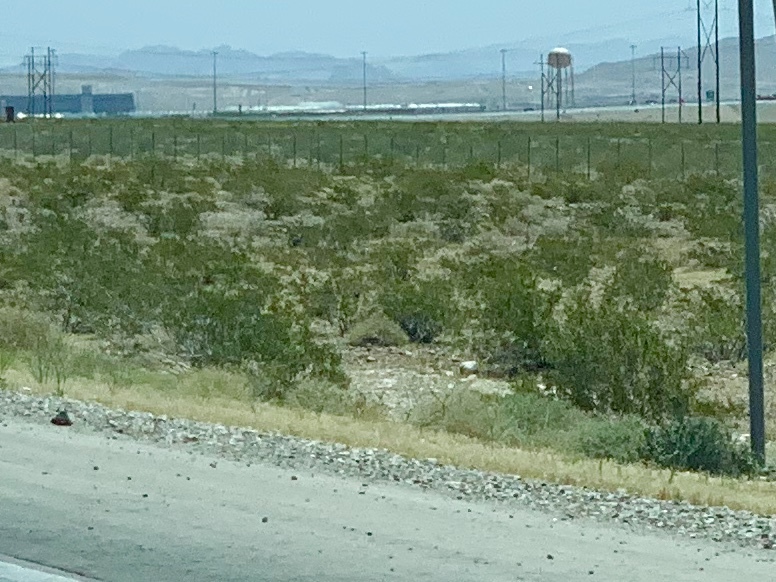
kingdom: Plantae
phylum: Tracheophyta
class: Magnoliopsida
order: Zygophyllales
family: Zygophyllaceae
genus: Larrea
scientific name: Larrea tridentata
